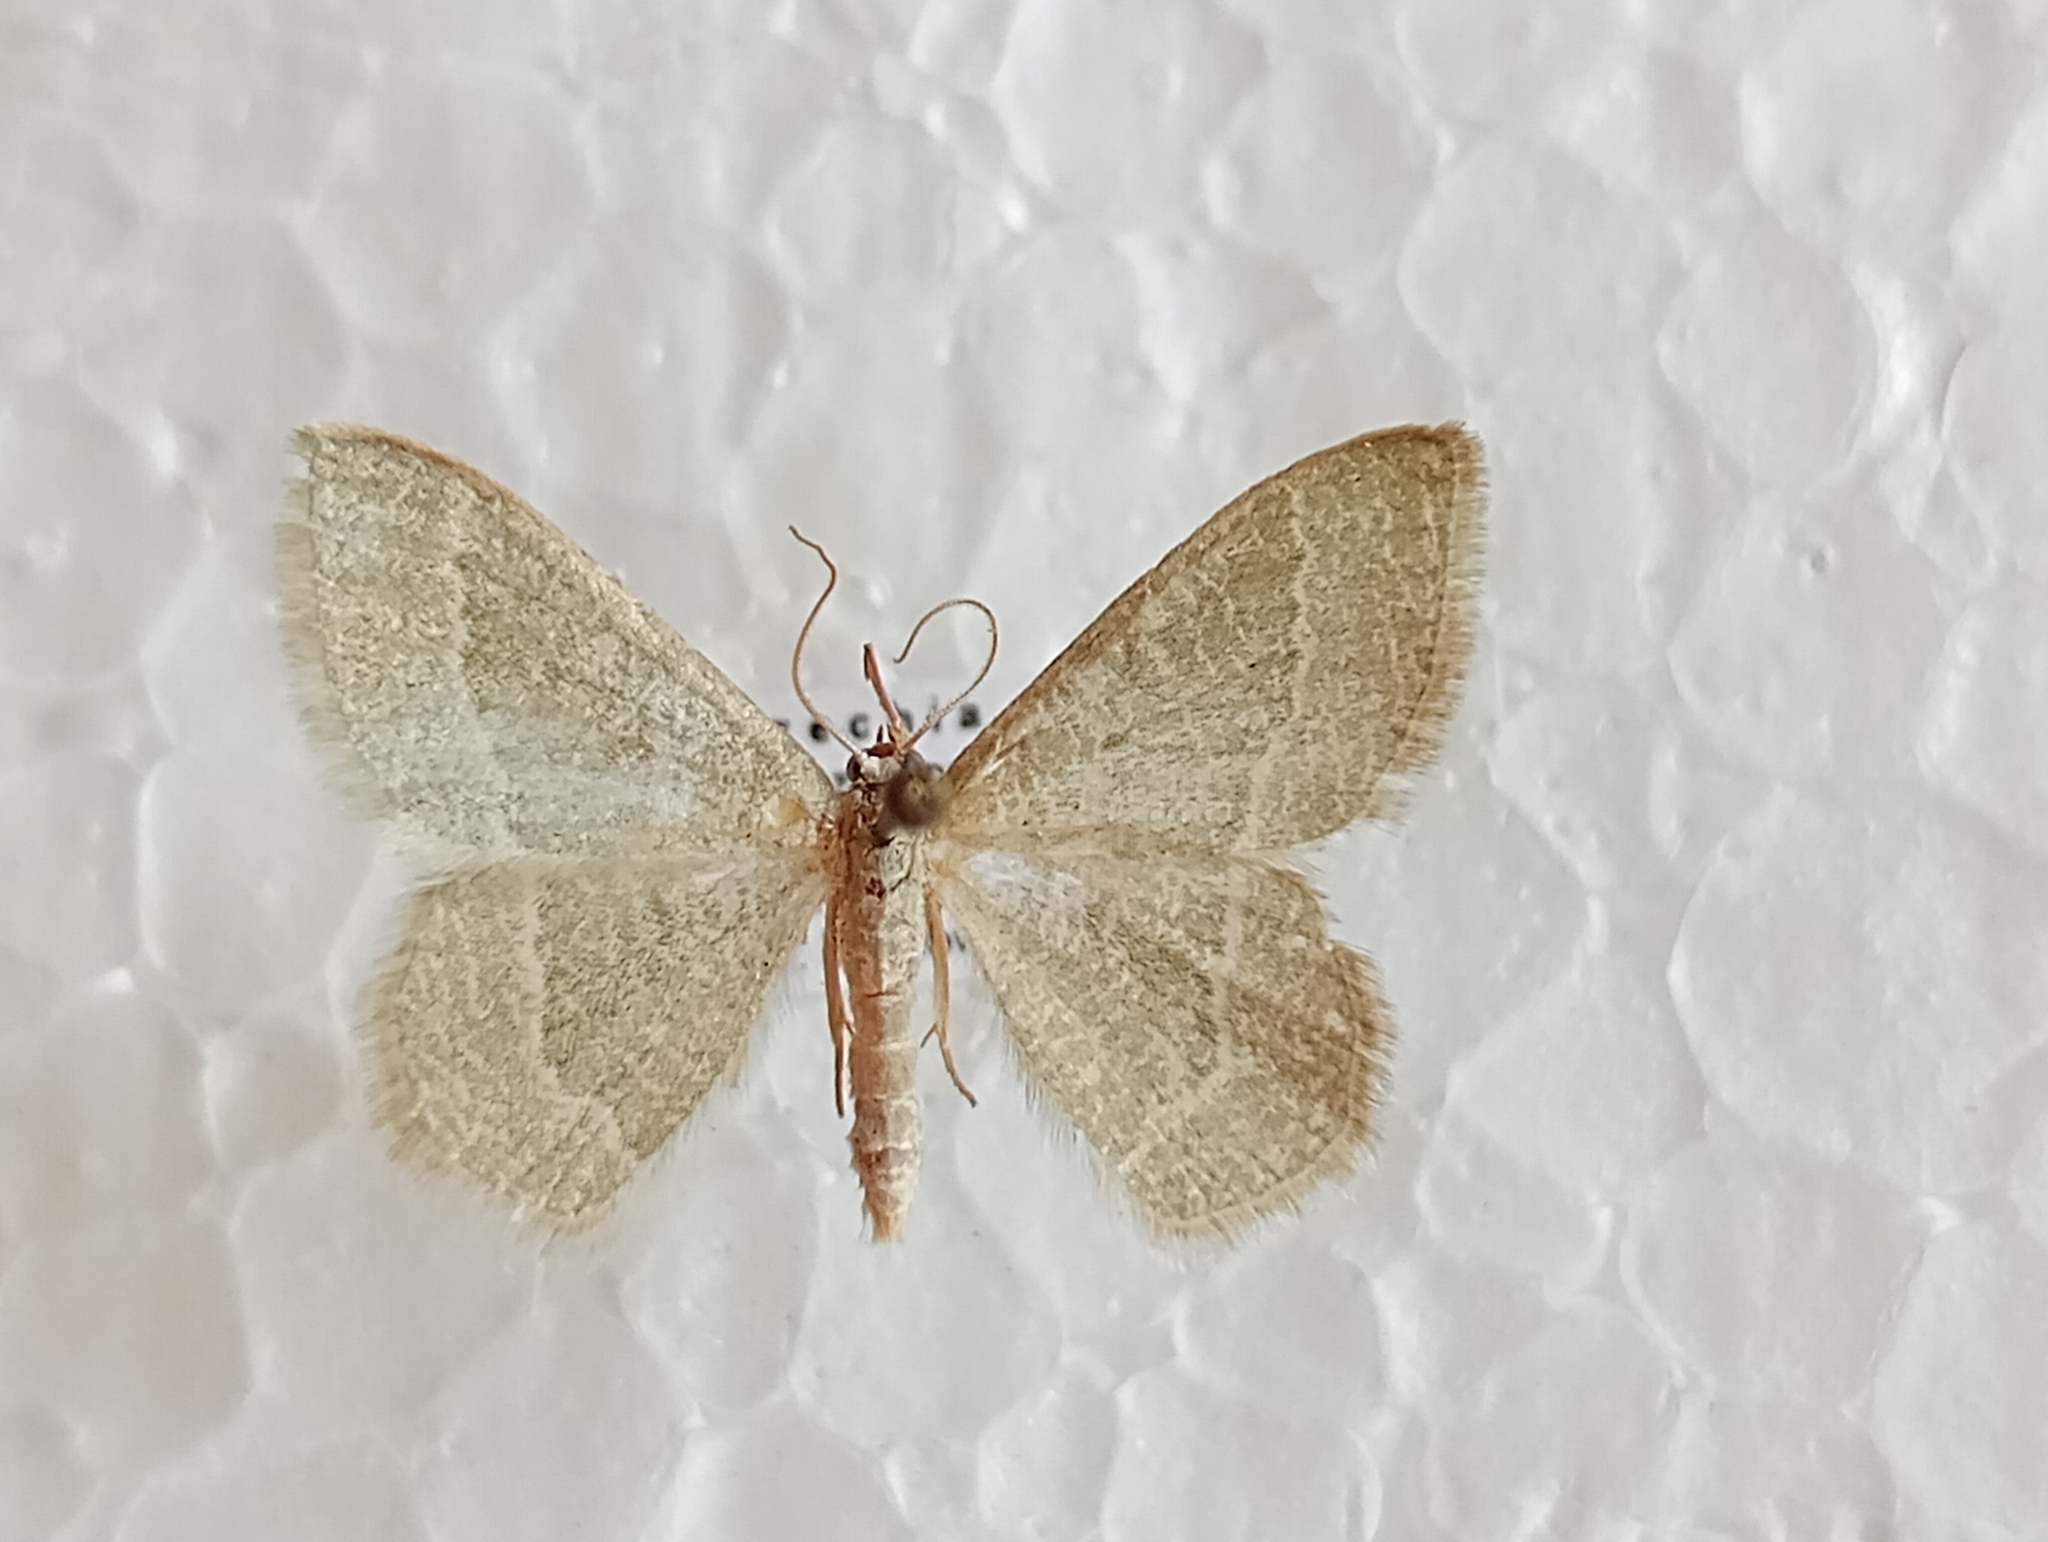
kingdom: Animalia
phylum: Arthropoda
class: Insecta
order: Lepidoptera
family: Geometridae
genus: Chlorissa
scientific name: Chlorissa etruscaria
